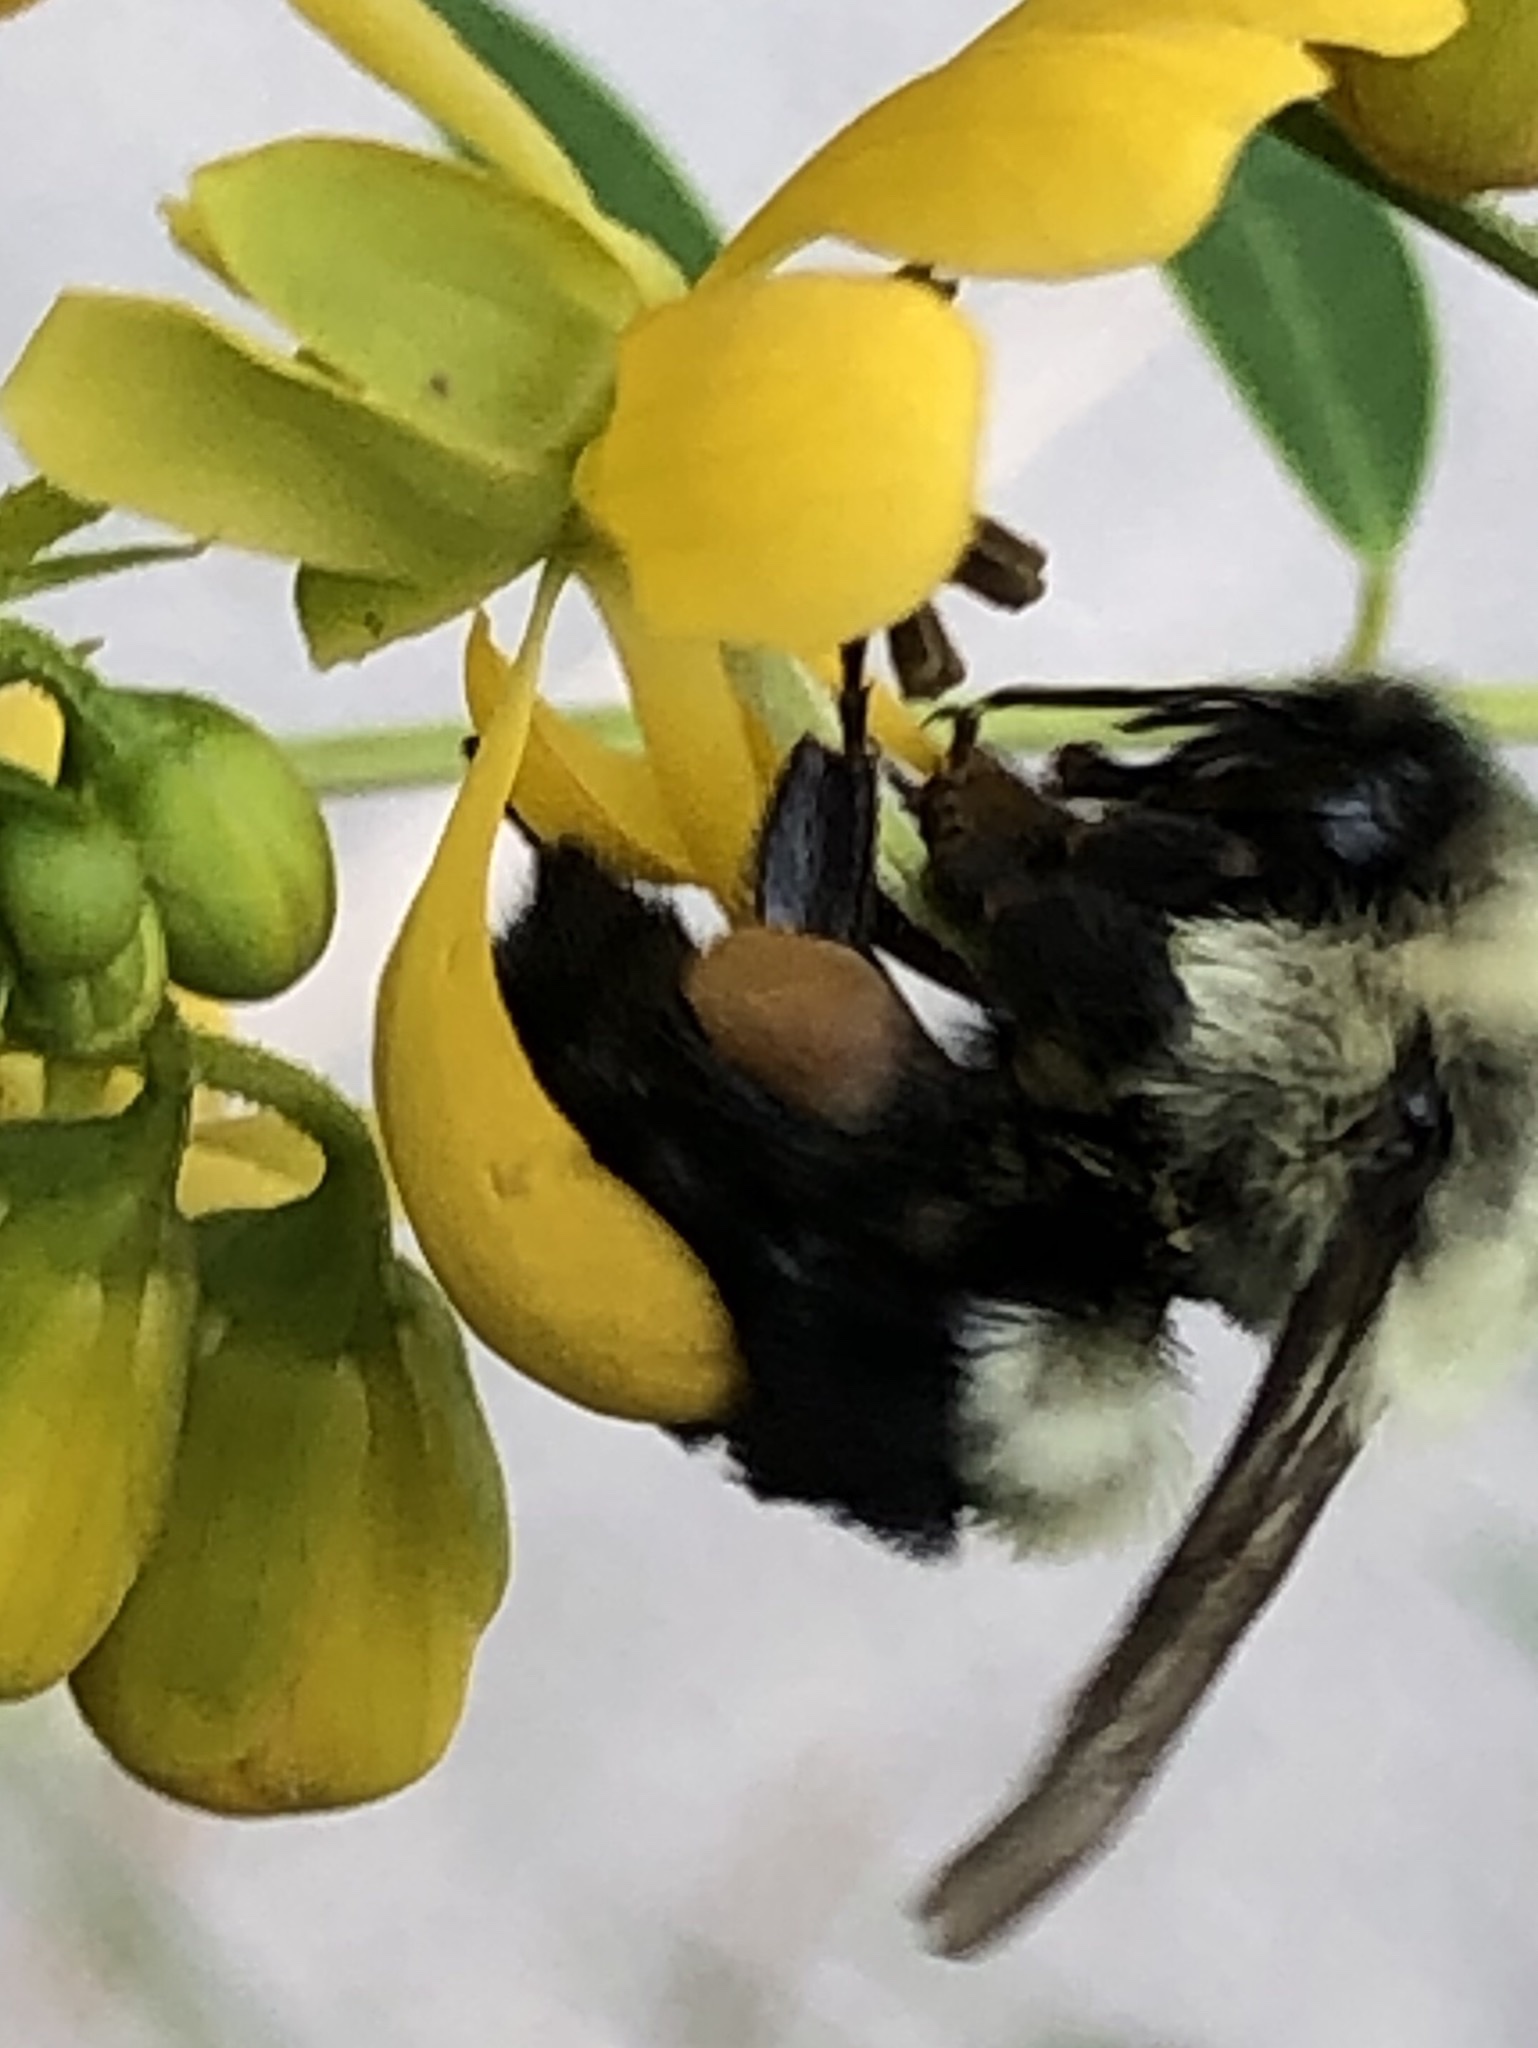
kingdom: Animalia
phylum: Arthropoda
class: Insecta
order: Hymenoptera
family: Apidae
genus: Bombus
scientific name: Bombus impatiens
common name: Common eastern bumble bee
